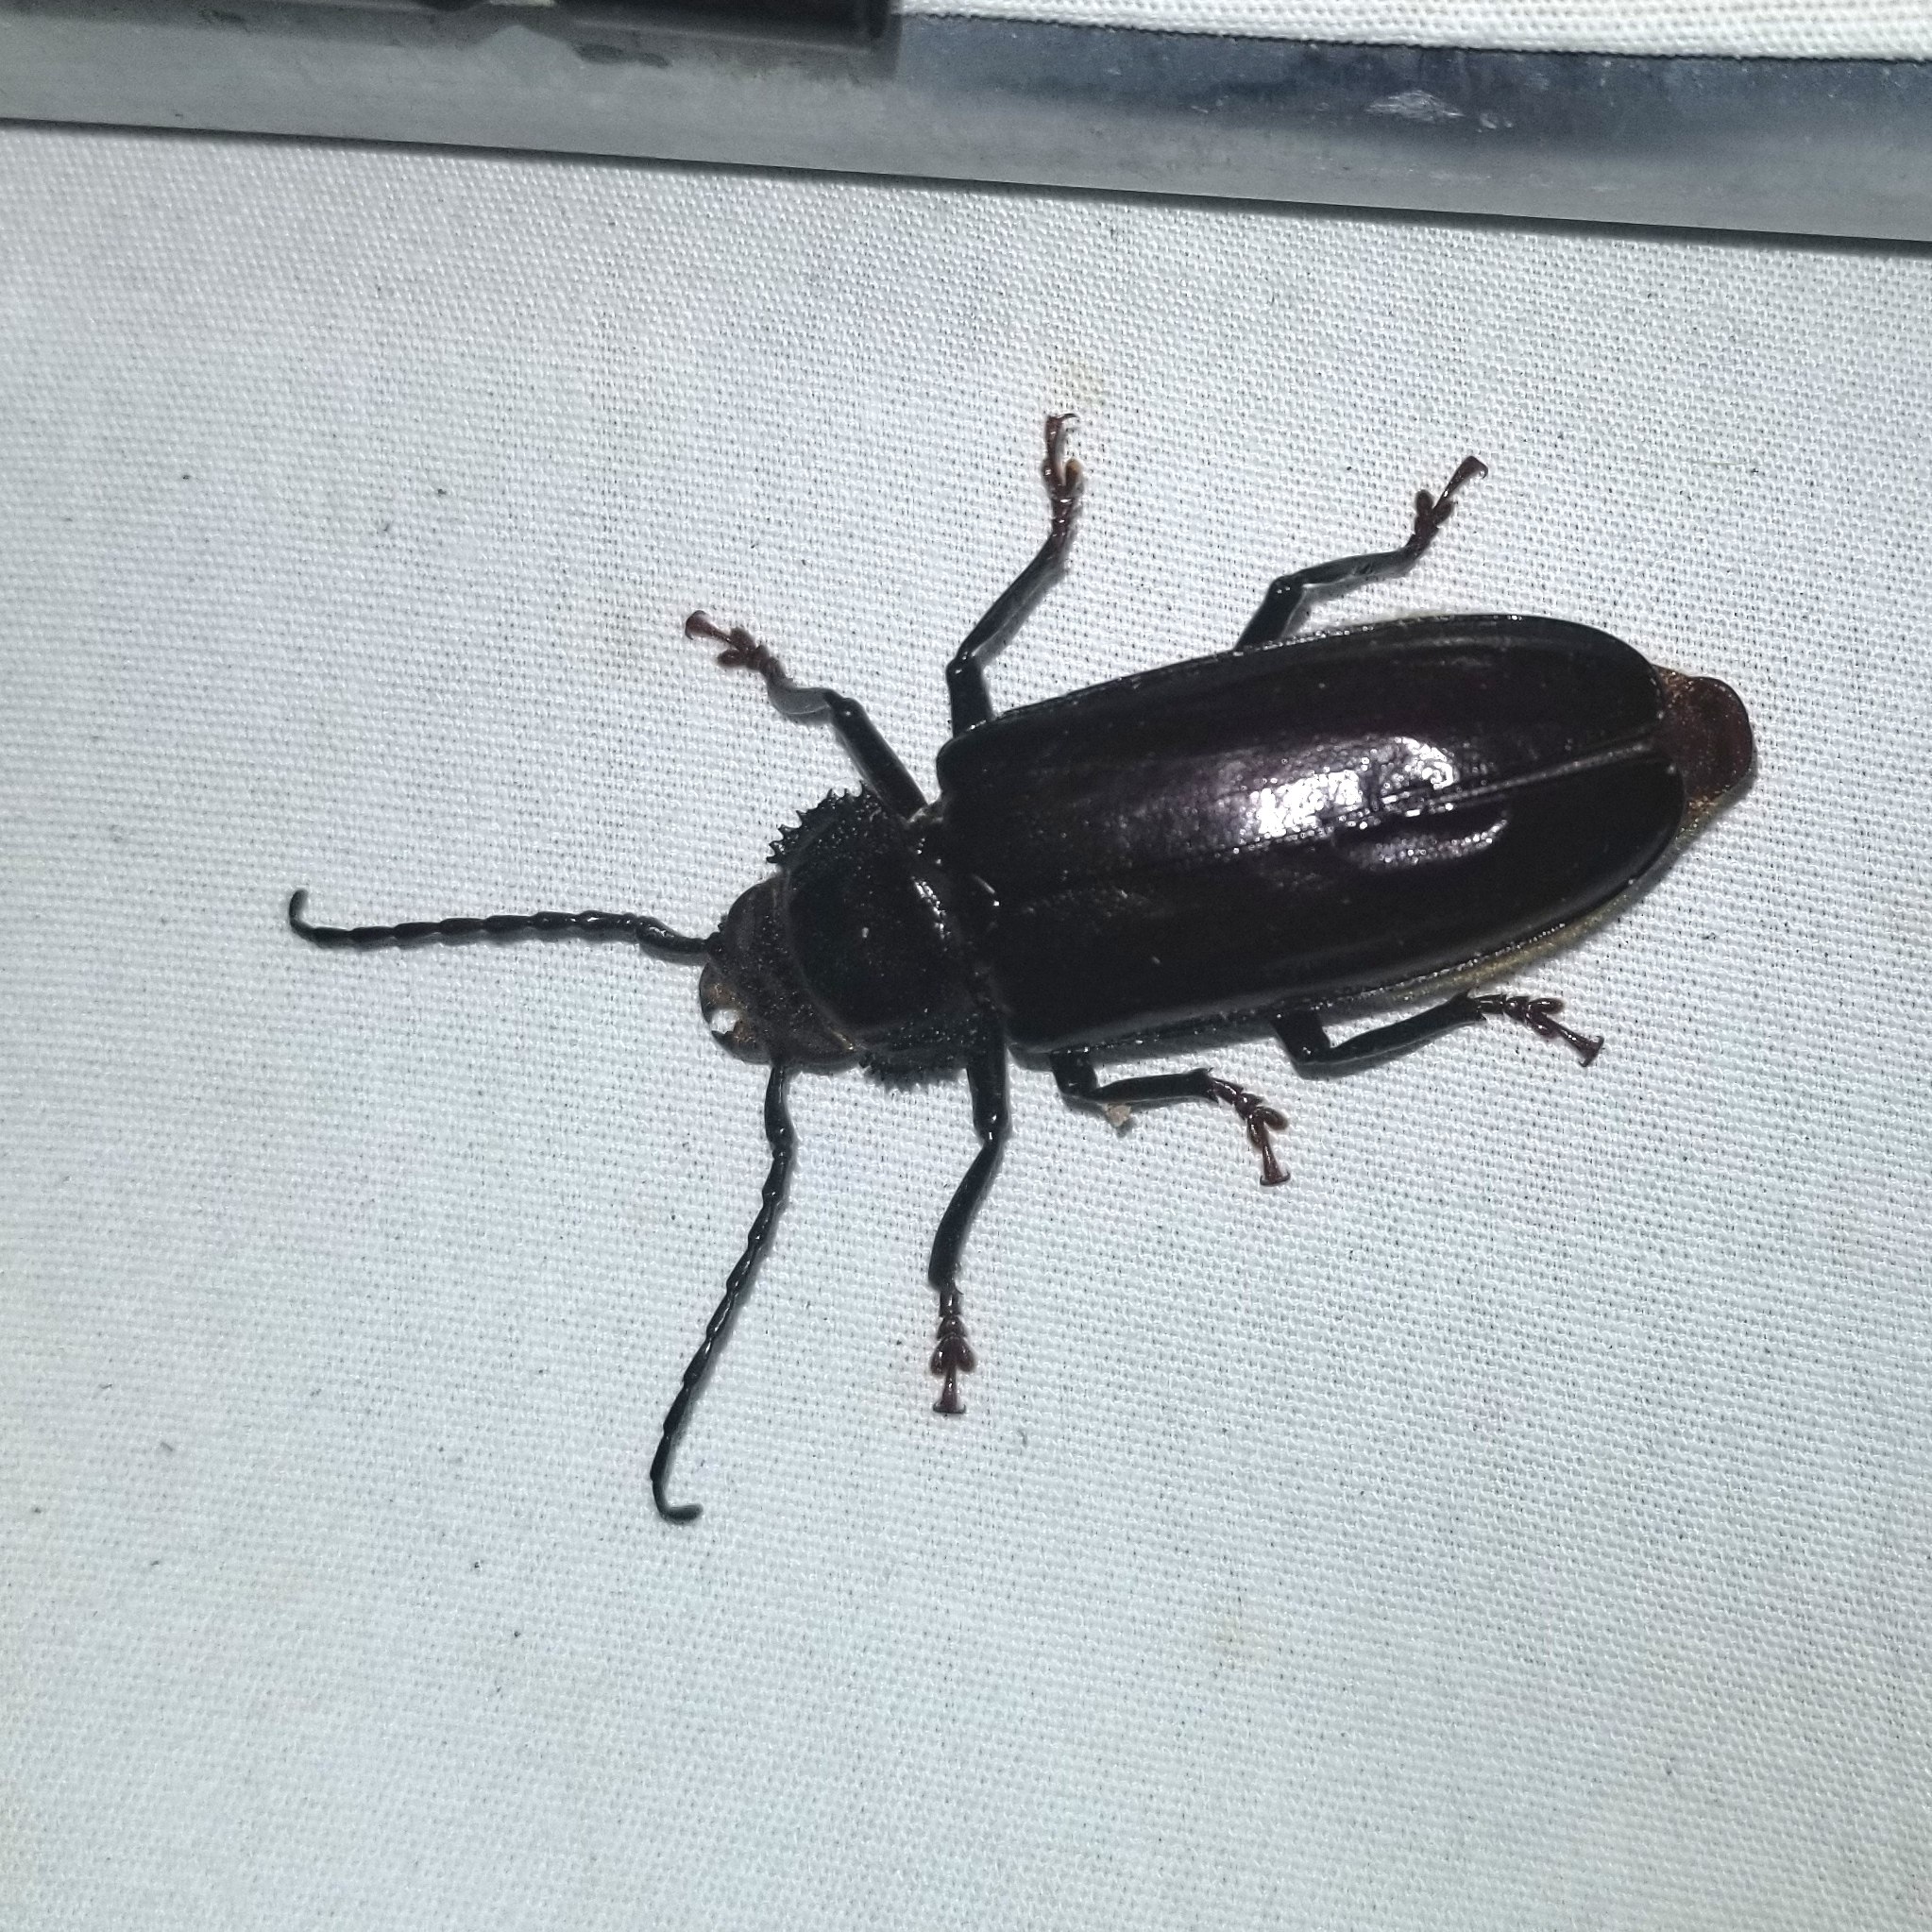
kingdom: Animalia
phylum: Arthropoda
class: Insecta
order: Coleoptera
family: Cerambycidae
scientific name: Cerambycidae
